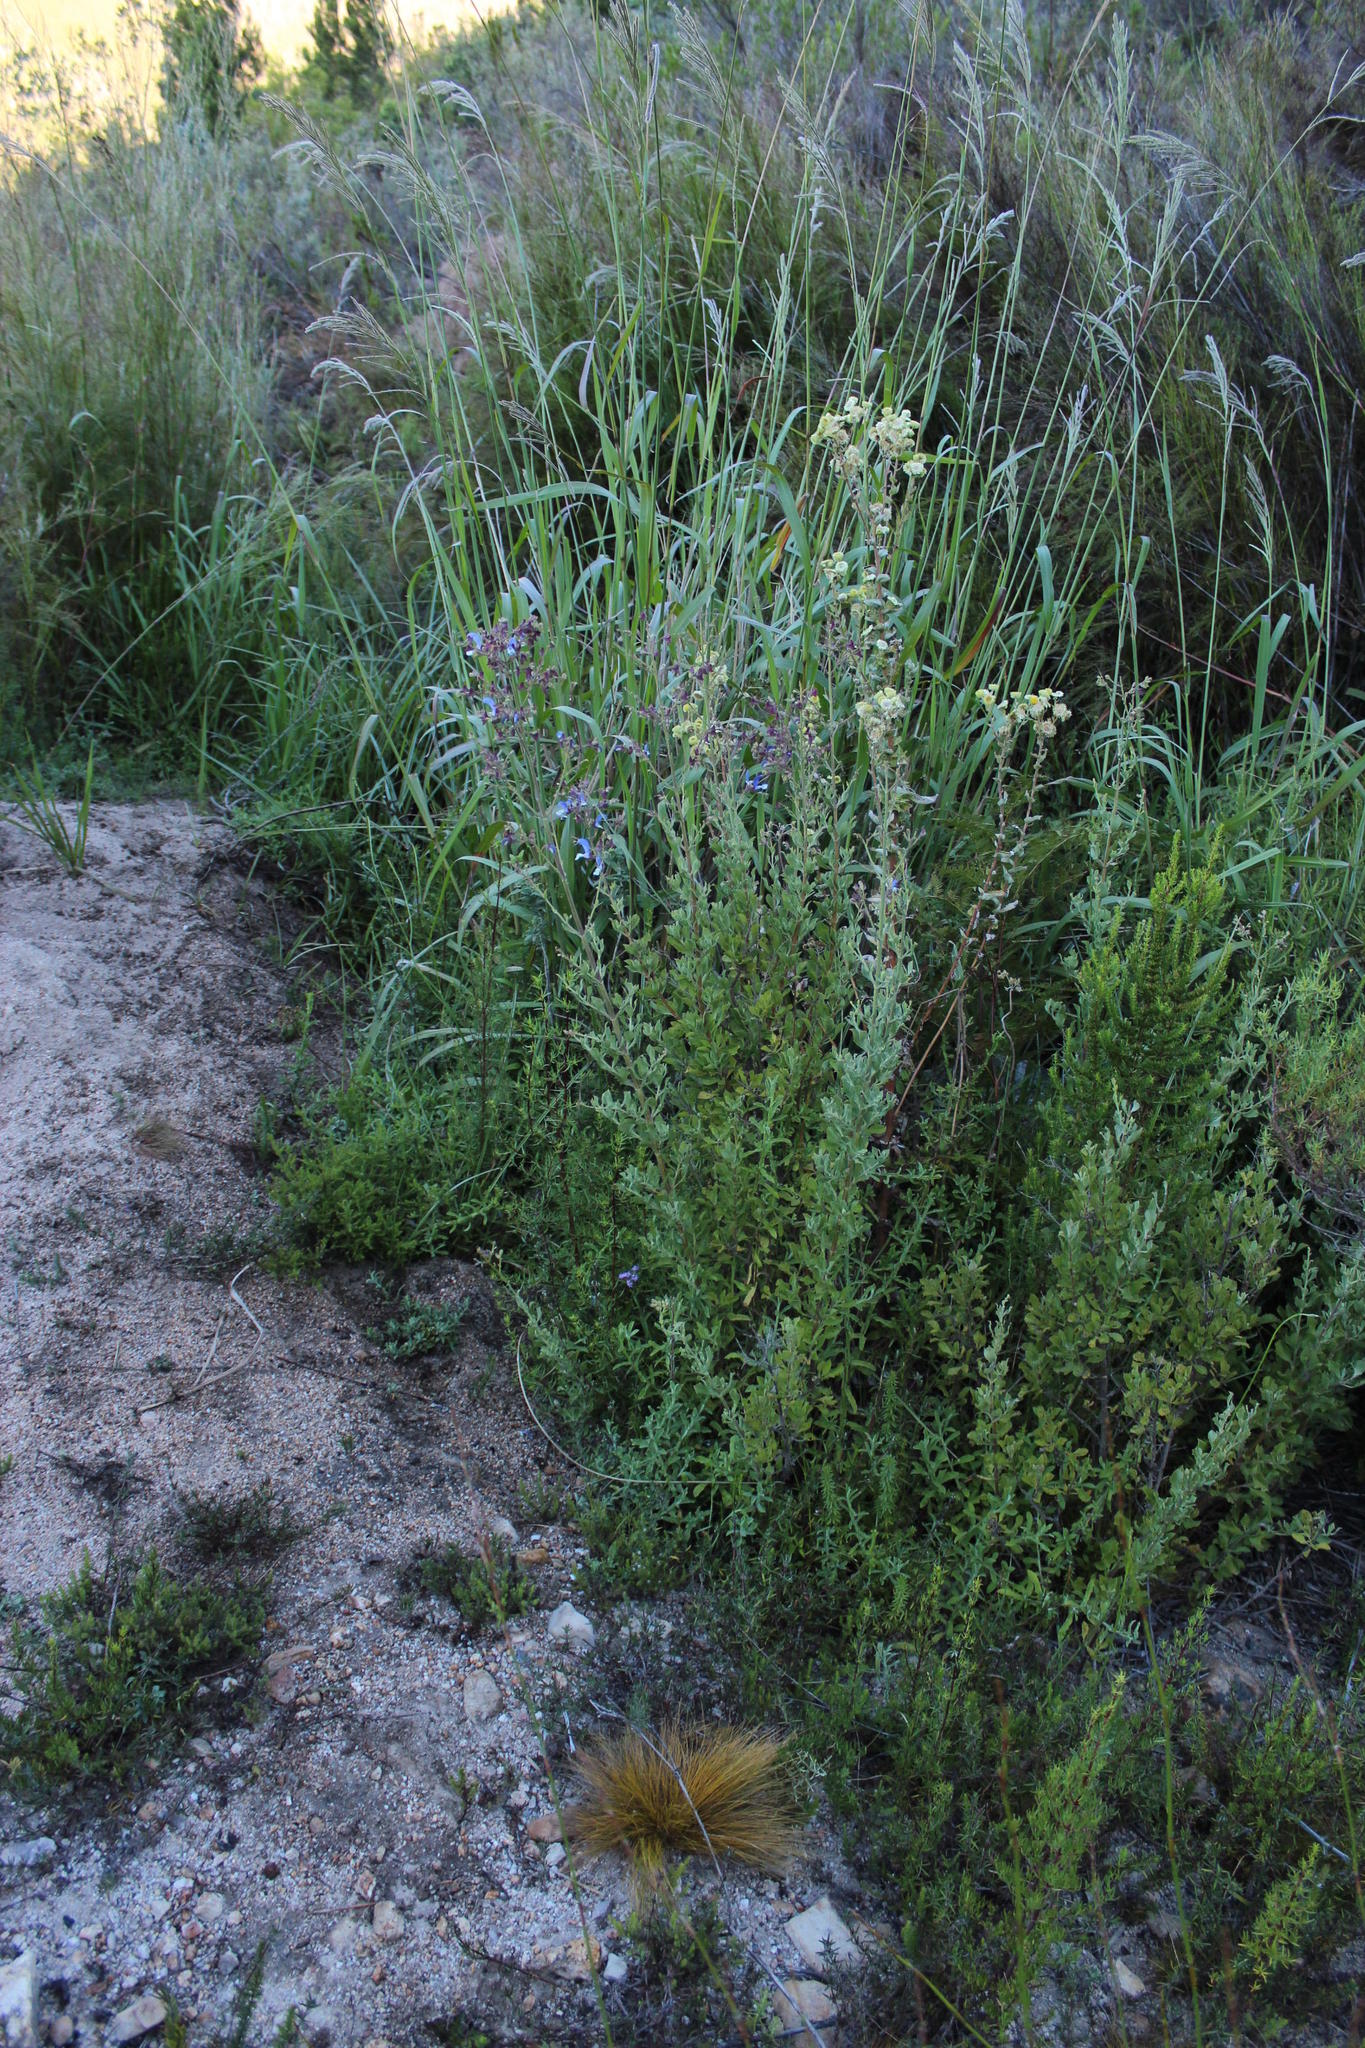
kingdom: Plantae
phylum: Tracheophyta
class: Magnoliopsida
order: Lamiales
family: Lamiaceae
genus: Salvia
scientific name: Salvia chamelaeagnea
